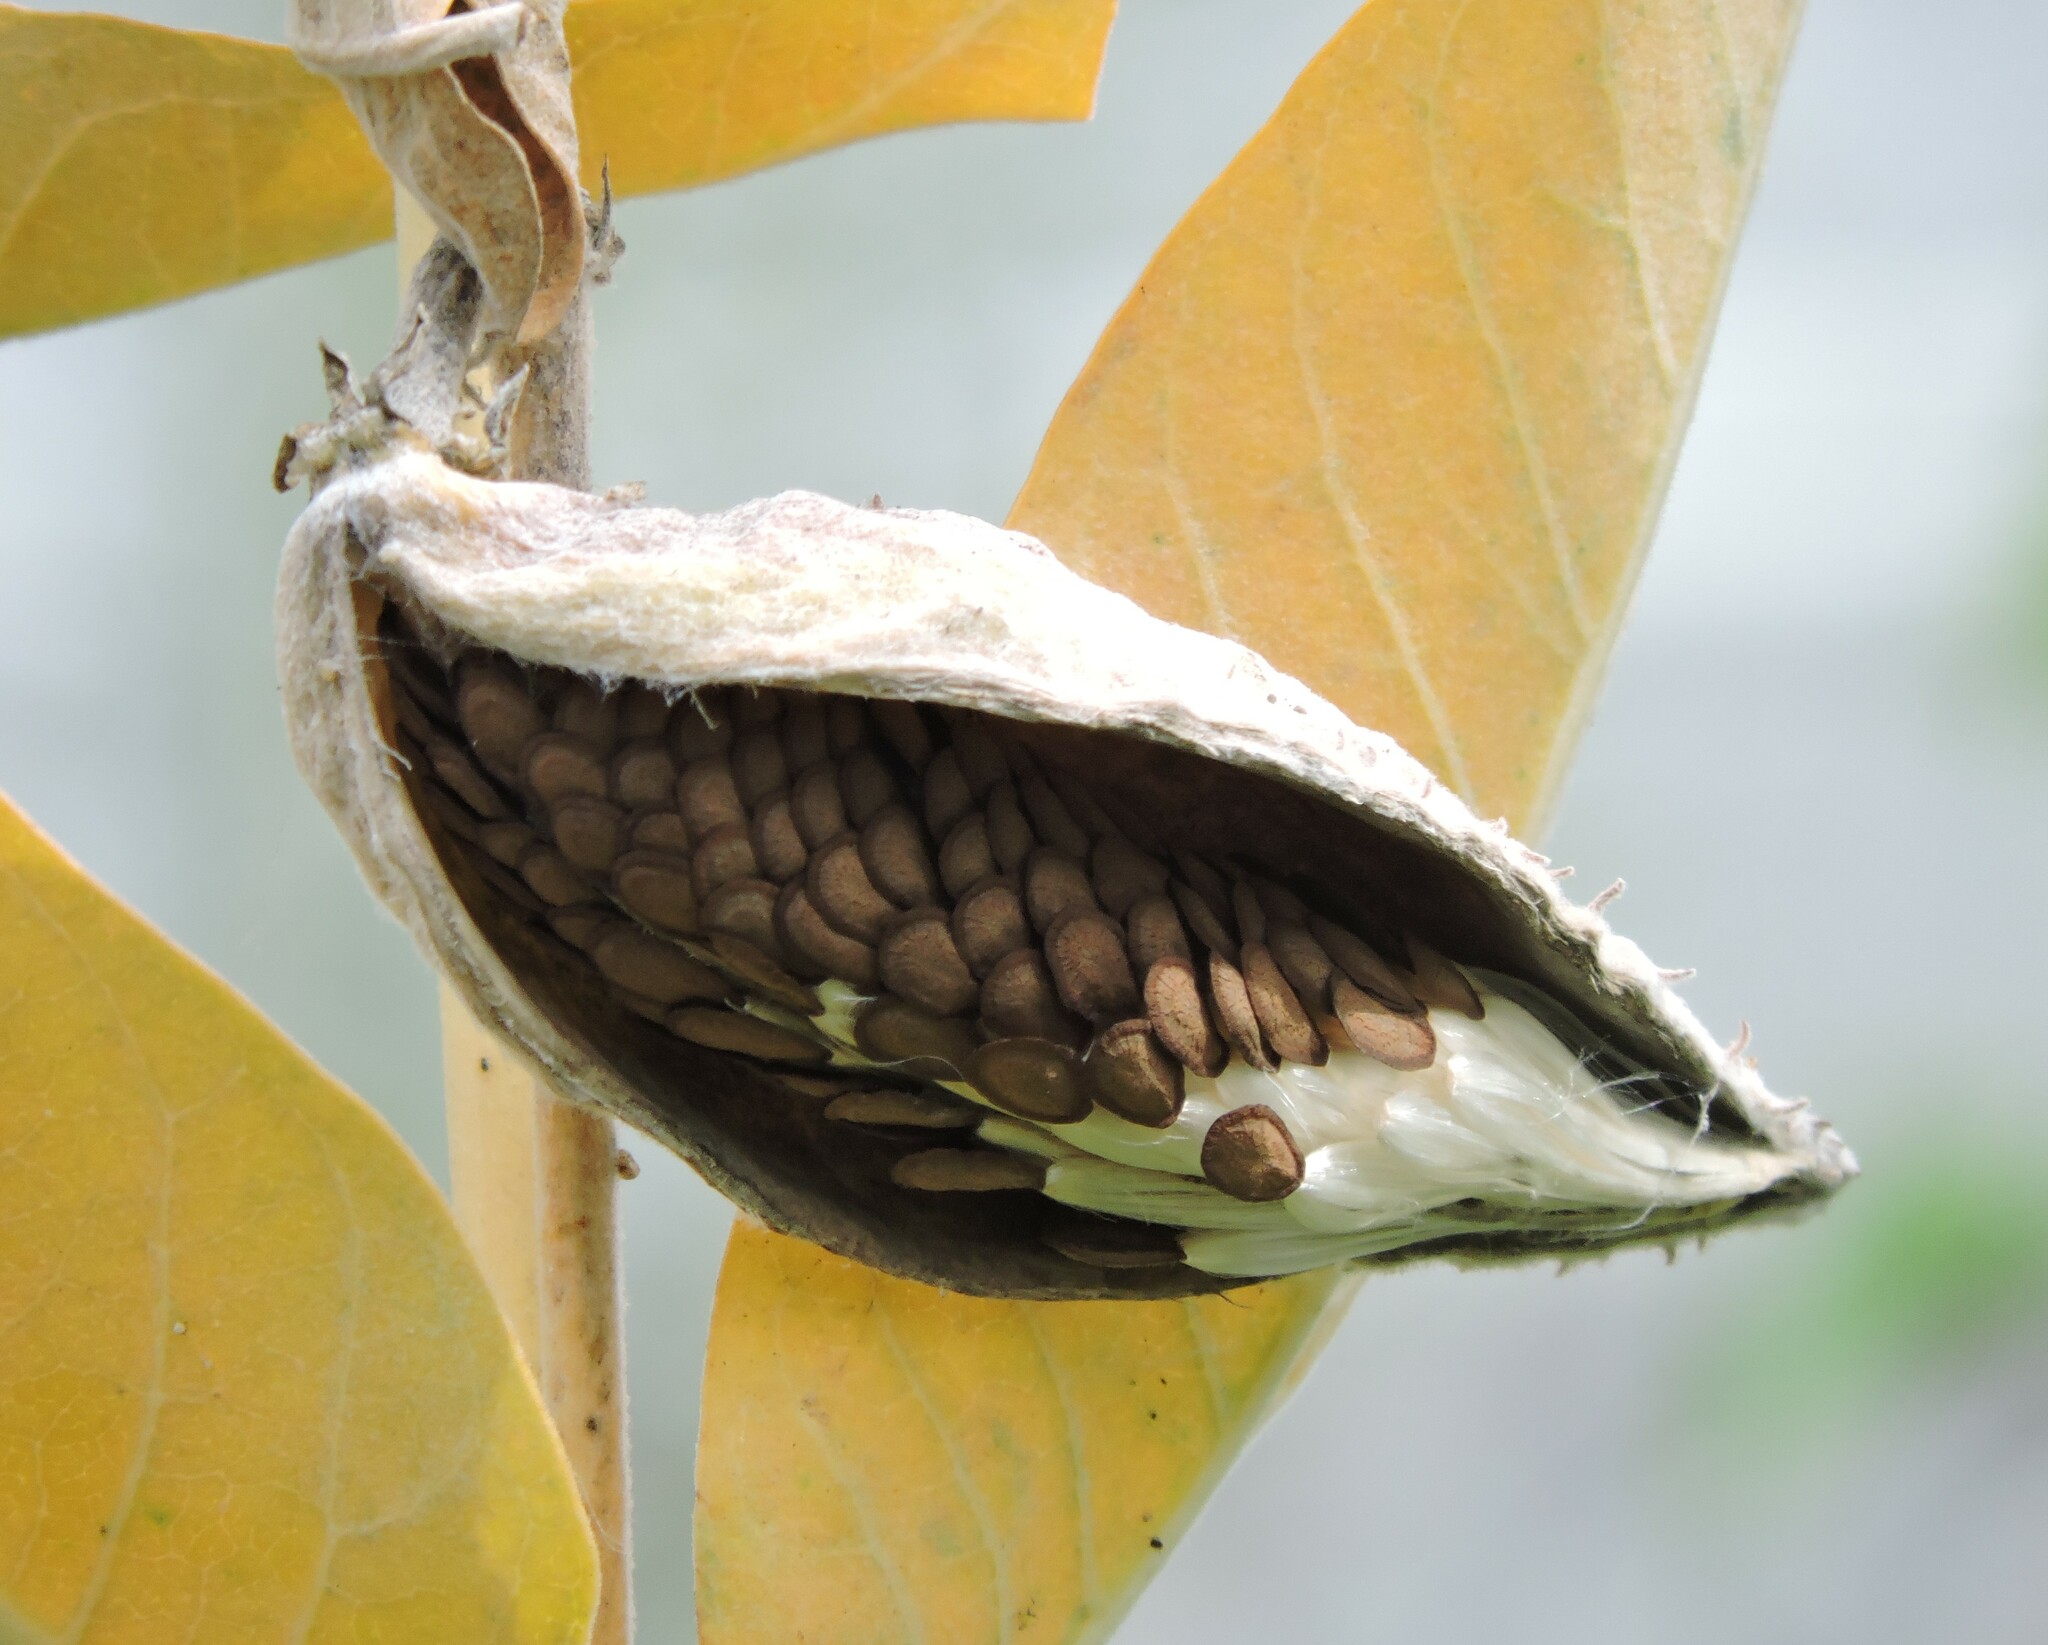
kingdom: Plantae
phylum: Tracheophyta
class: Magnoliopsida
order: Gentianales
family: Apocynaceae
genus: Asclepias
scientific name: Asclepias speciosa
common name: Showy milkweed
